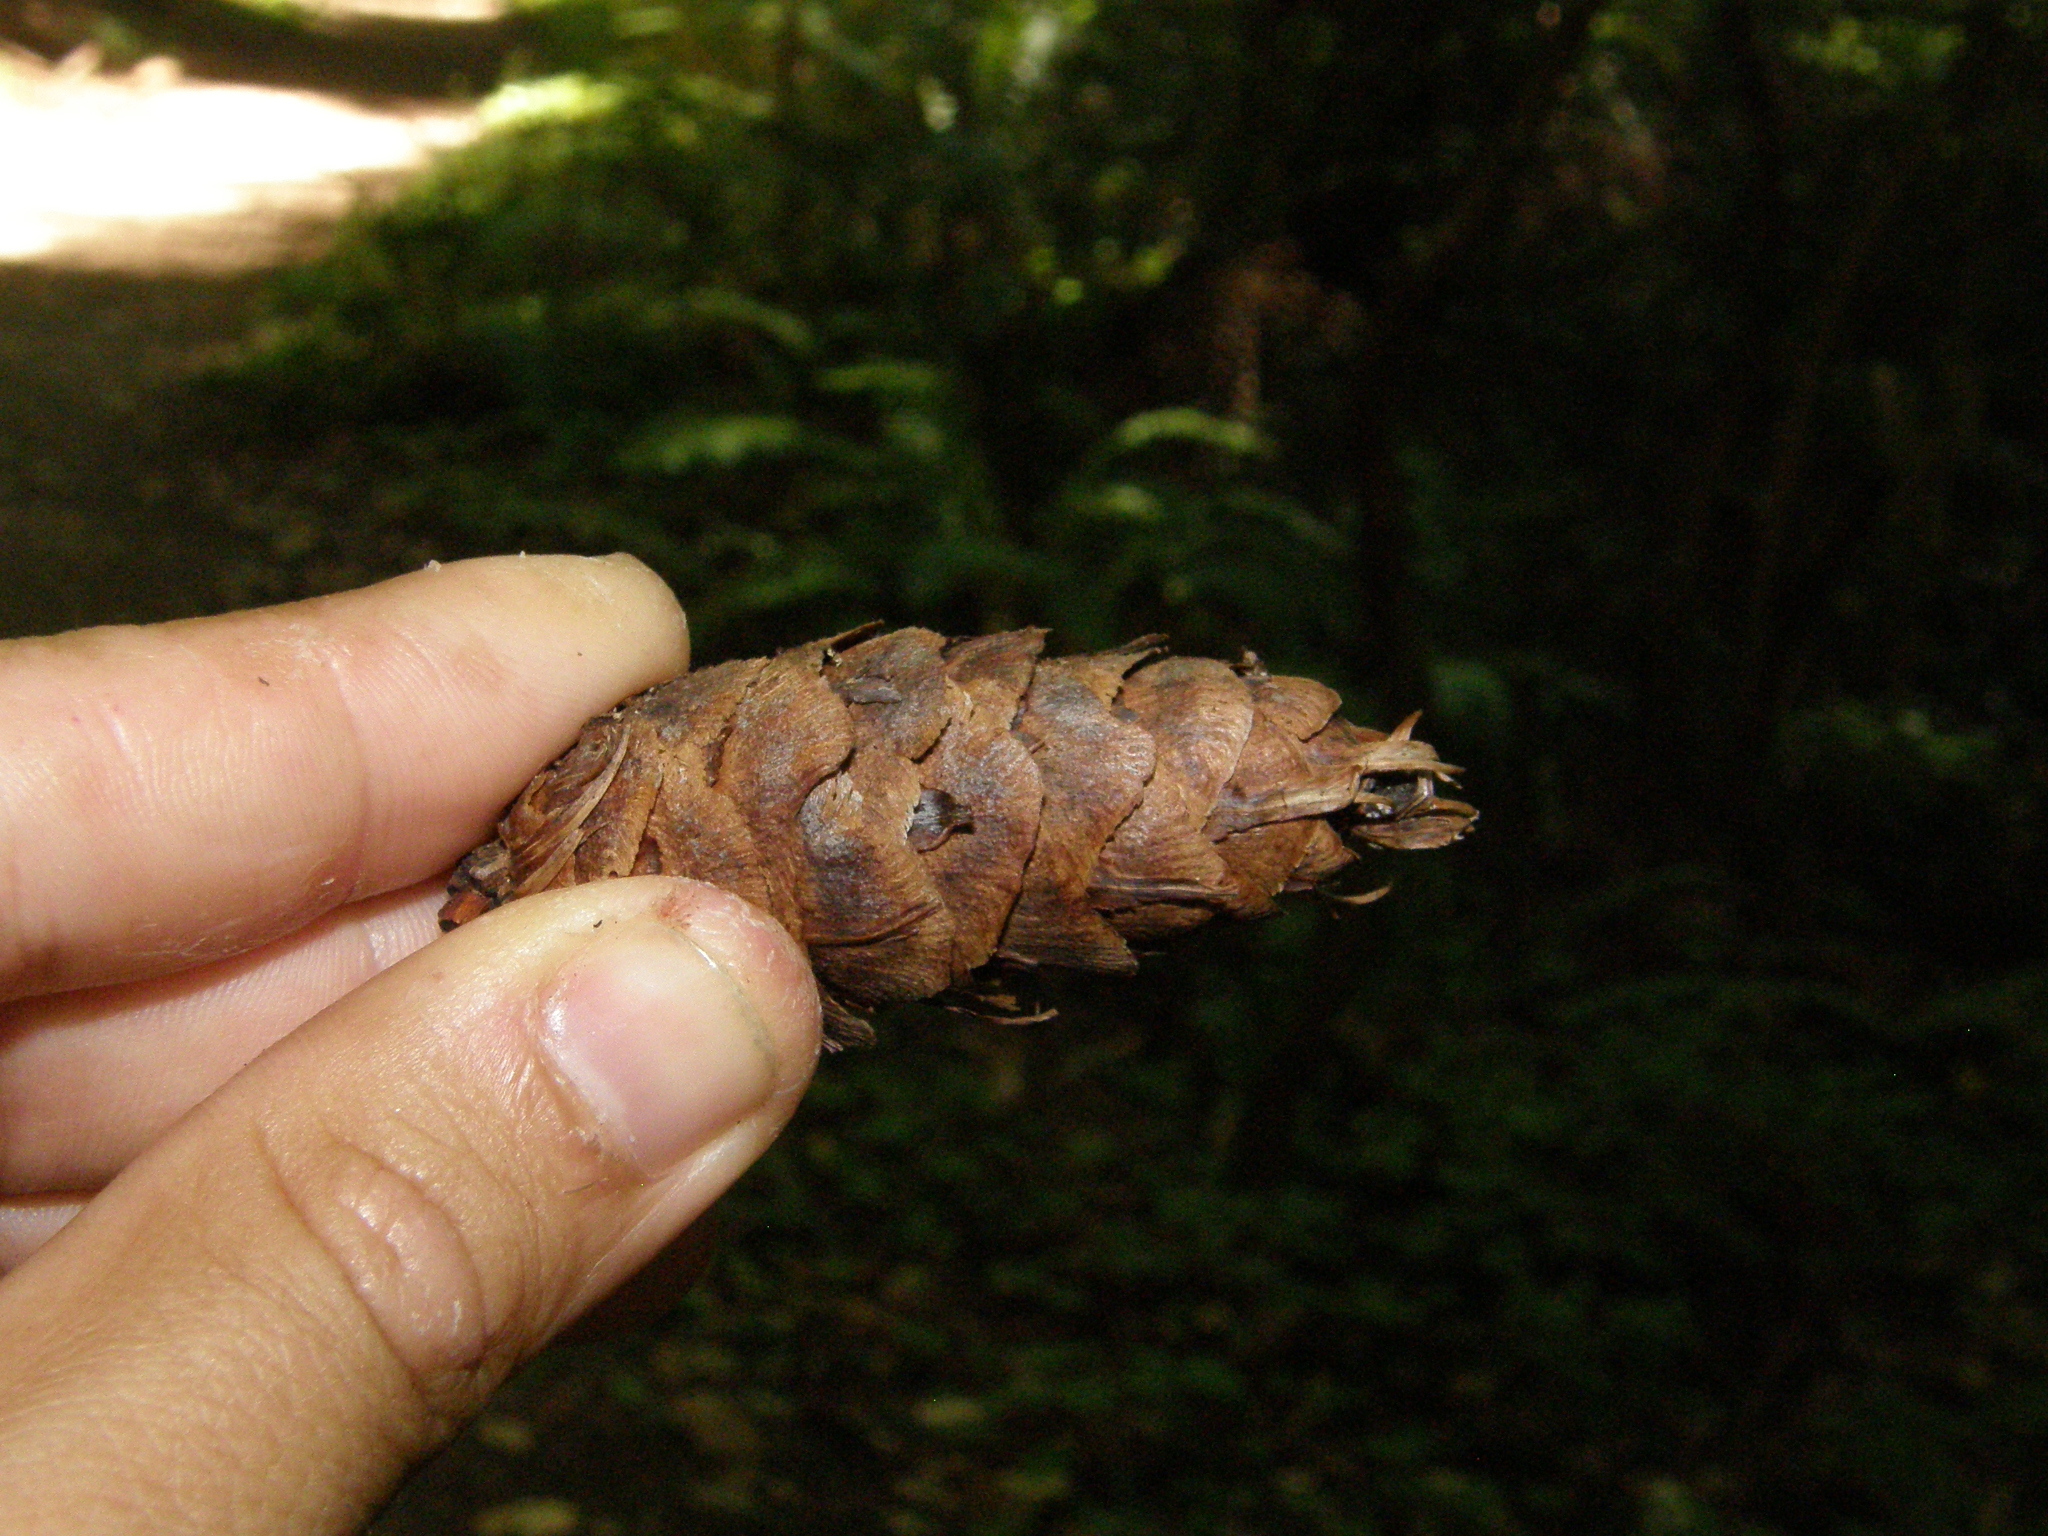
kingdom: Plantae
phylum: Tracheophyta
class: Pinopsida
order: Pinales
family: Pinaceae
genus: Pseudotsuga
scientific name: Pseudotsuga menziesii
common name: Douglas fir
